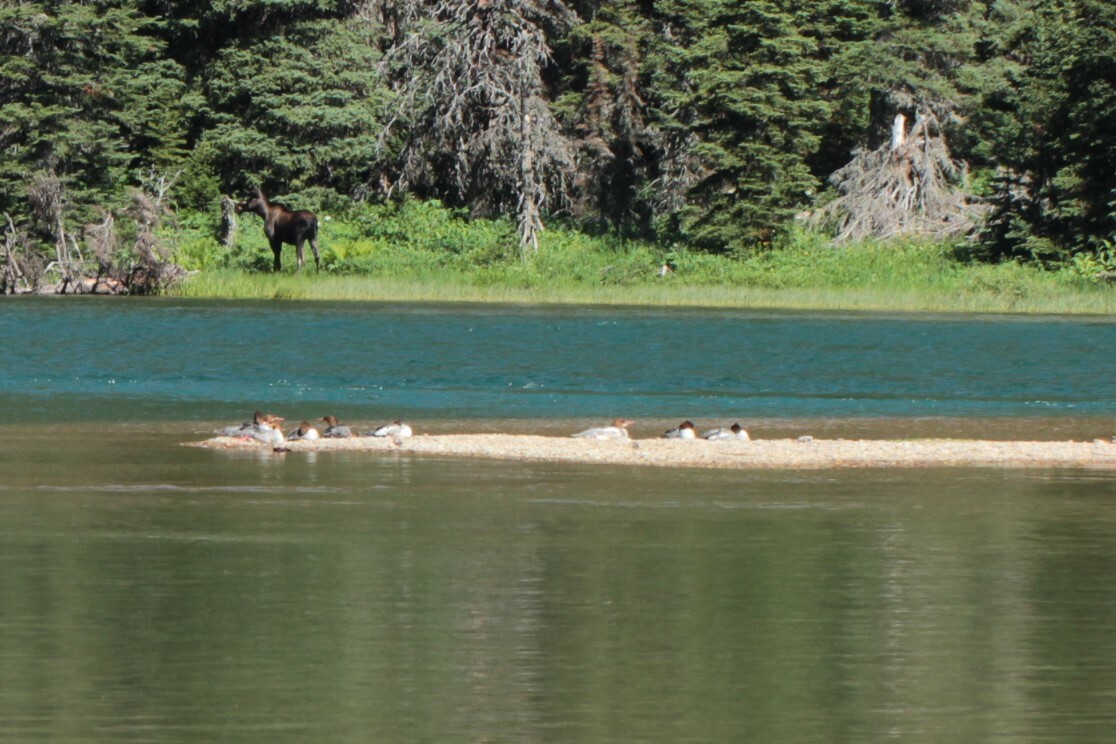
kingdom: Animalia
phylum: Chordata
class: Aves
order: Anseriformes
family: Anatidae
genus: Mergus
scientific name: Mergus merganser
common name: Common merganser
